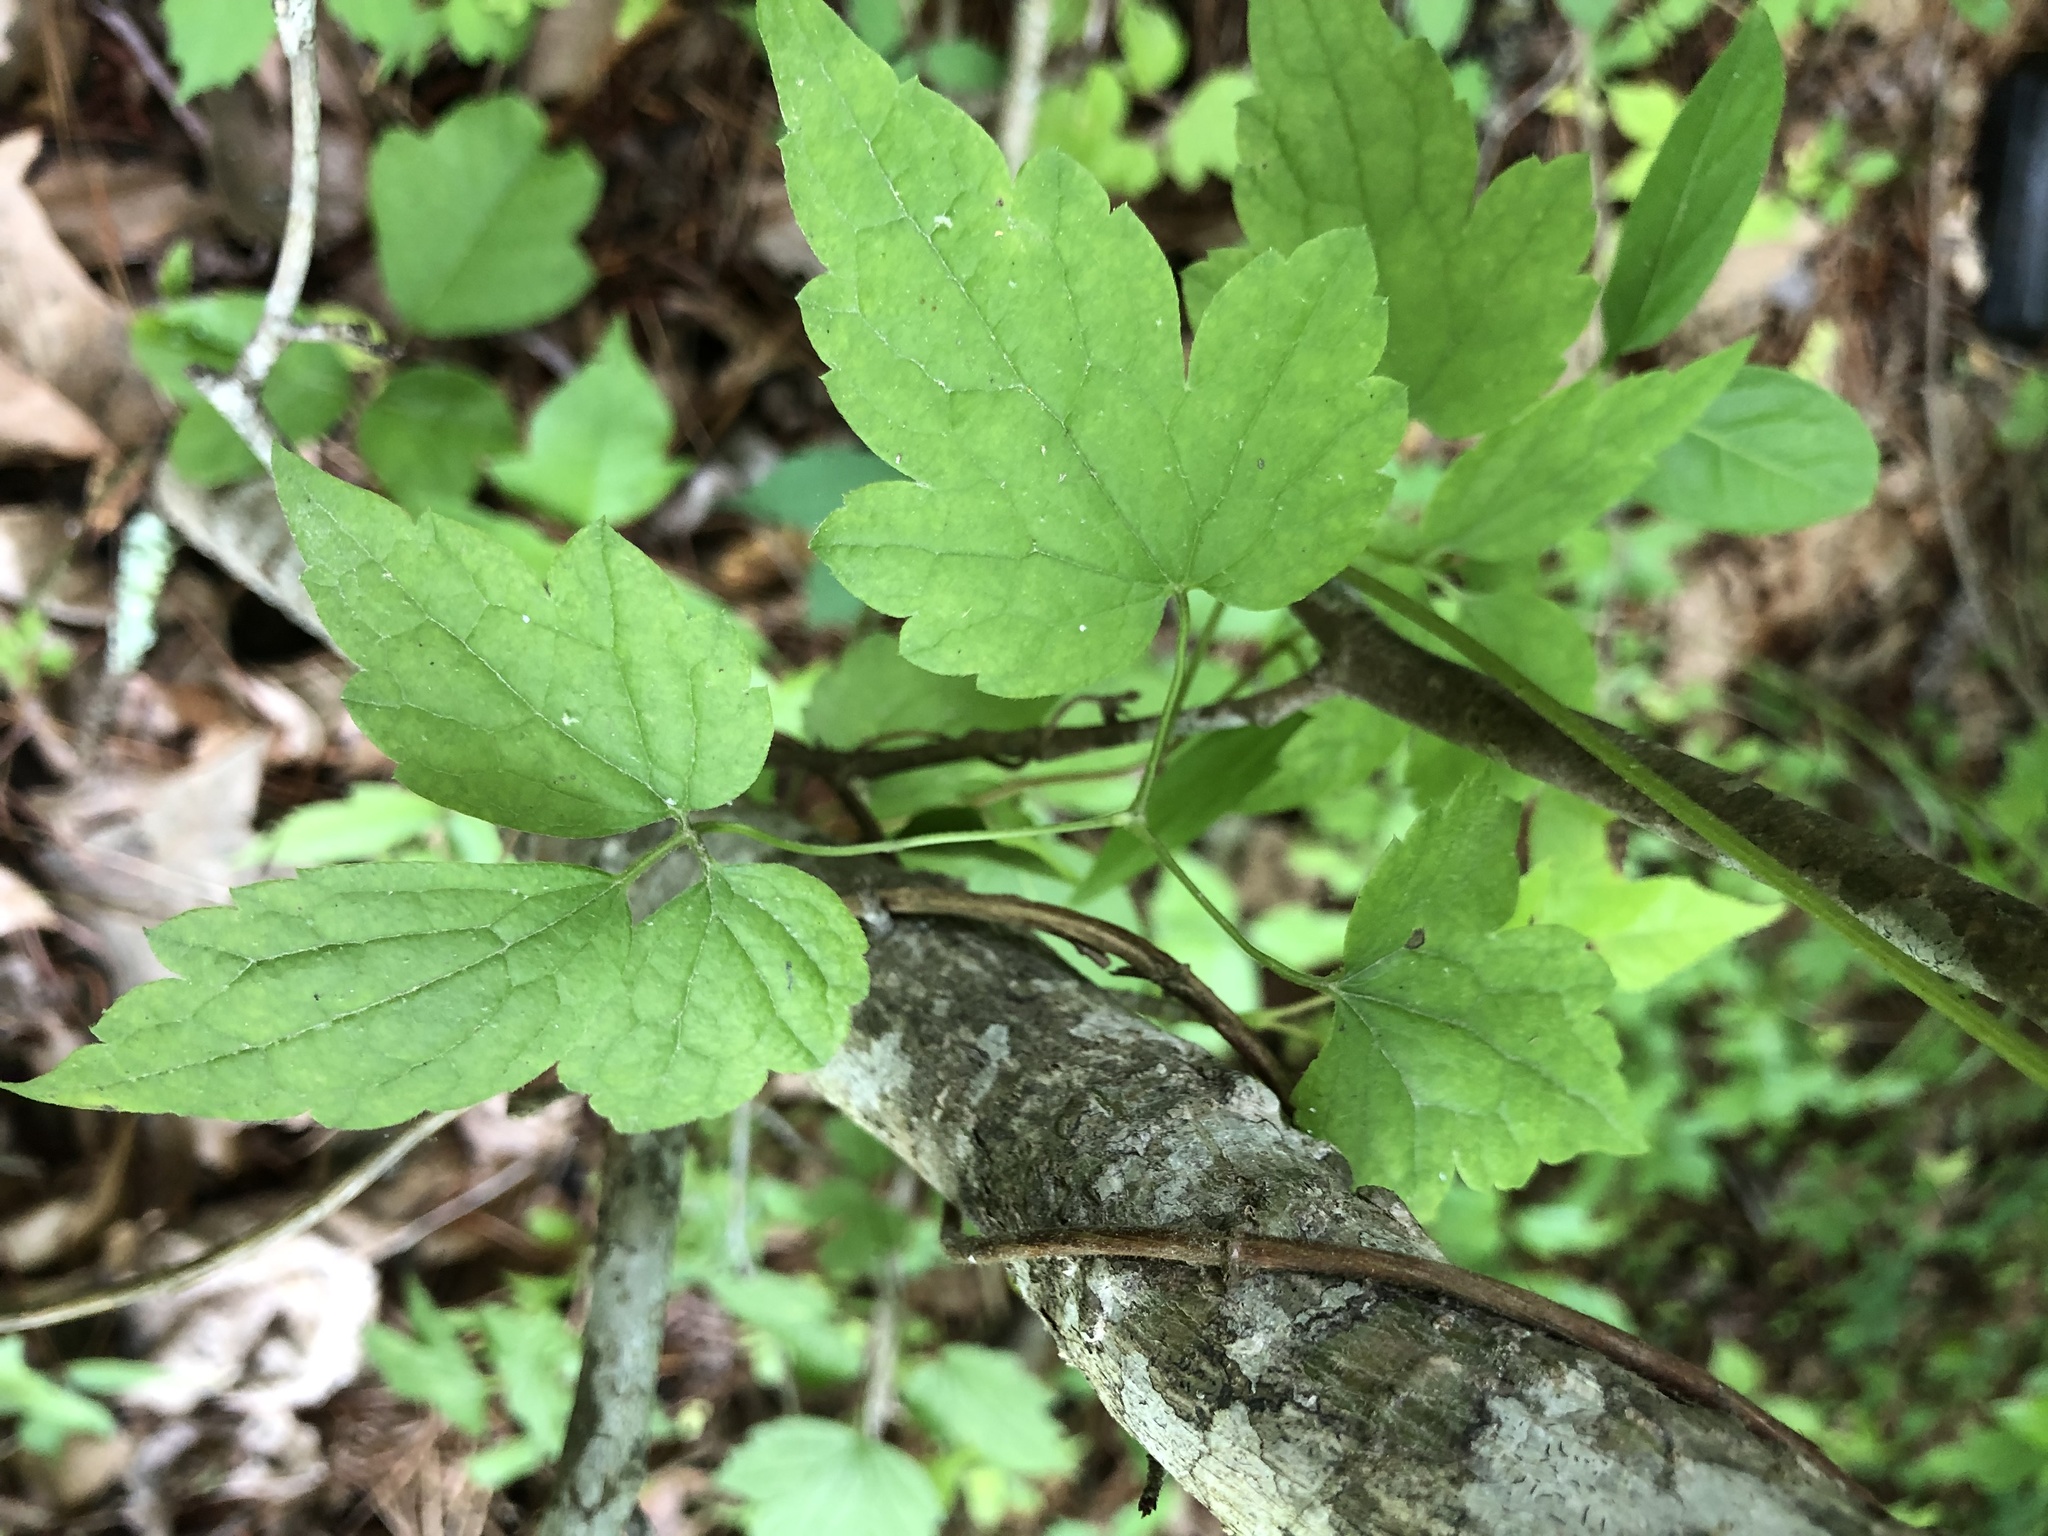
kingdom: Plantae
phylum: Tracheophyta
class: Magnoliopsida
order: Ranunculales
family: Ranunculaceae
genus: Clematis
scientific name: Clematis catesbyana
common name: Virgin's bower
